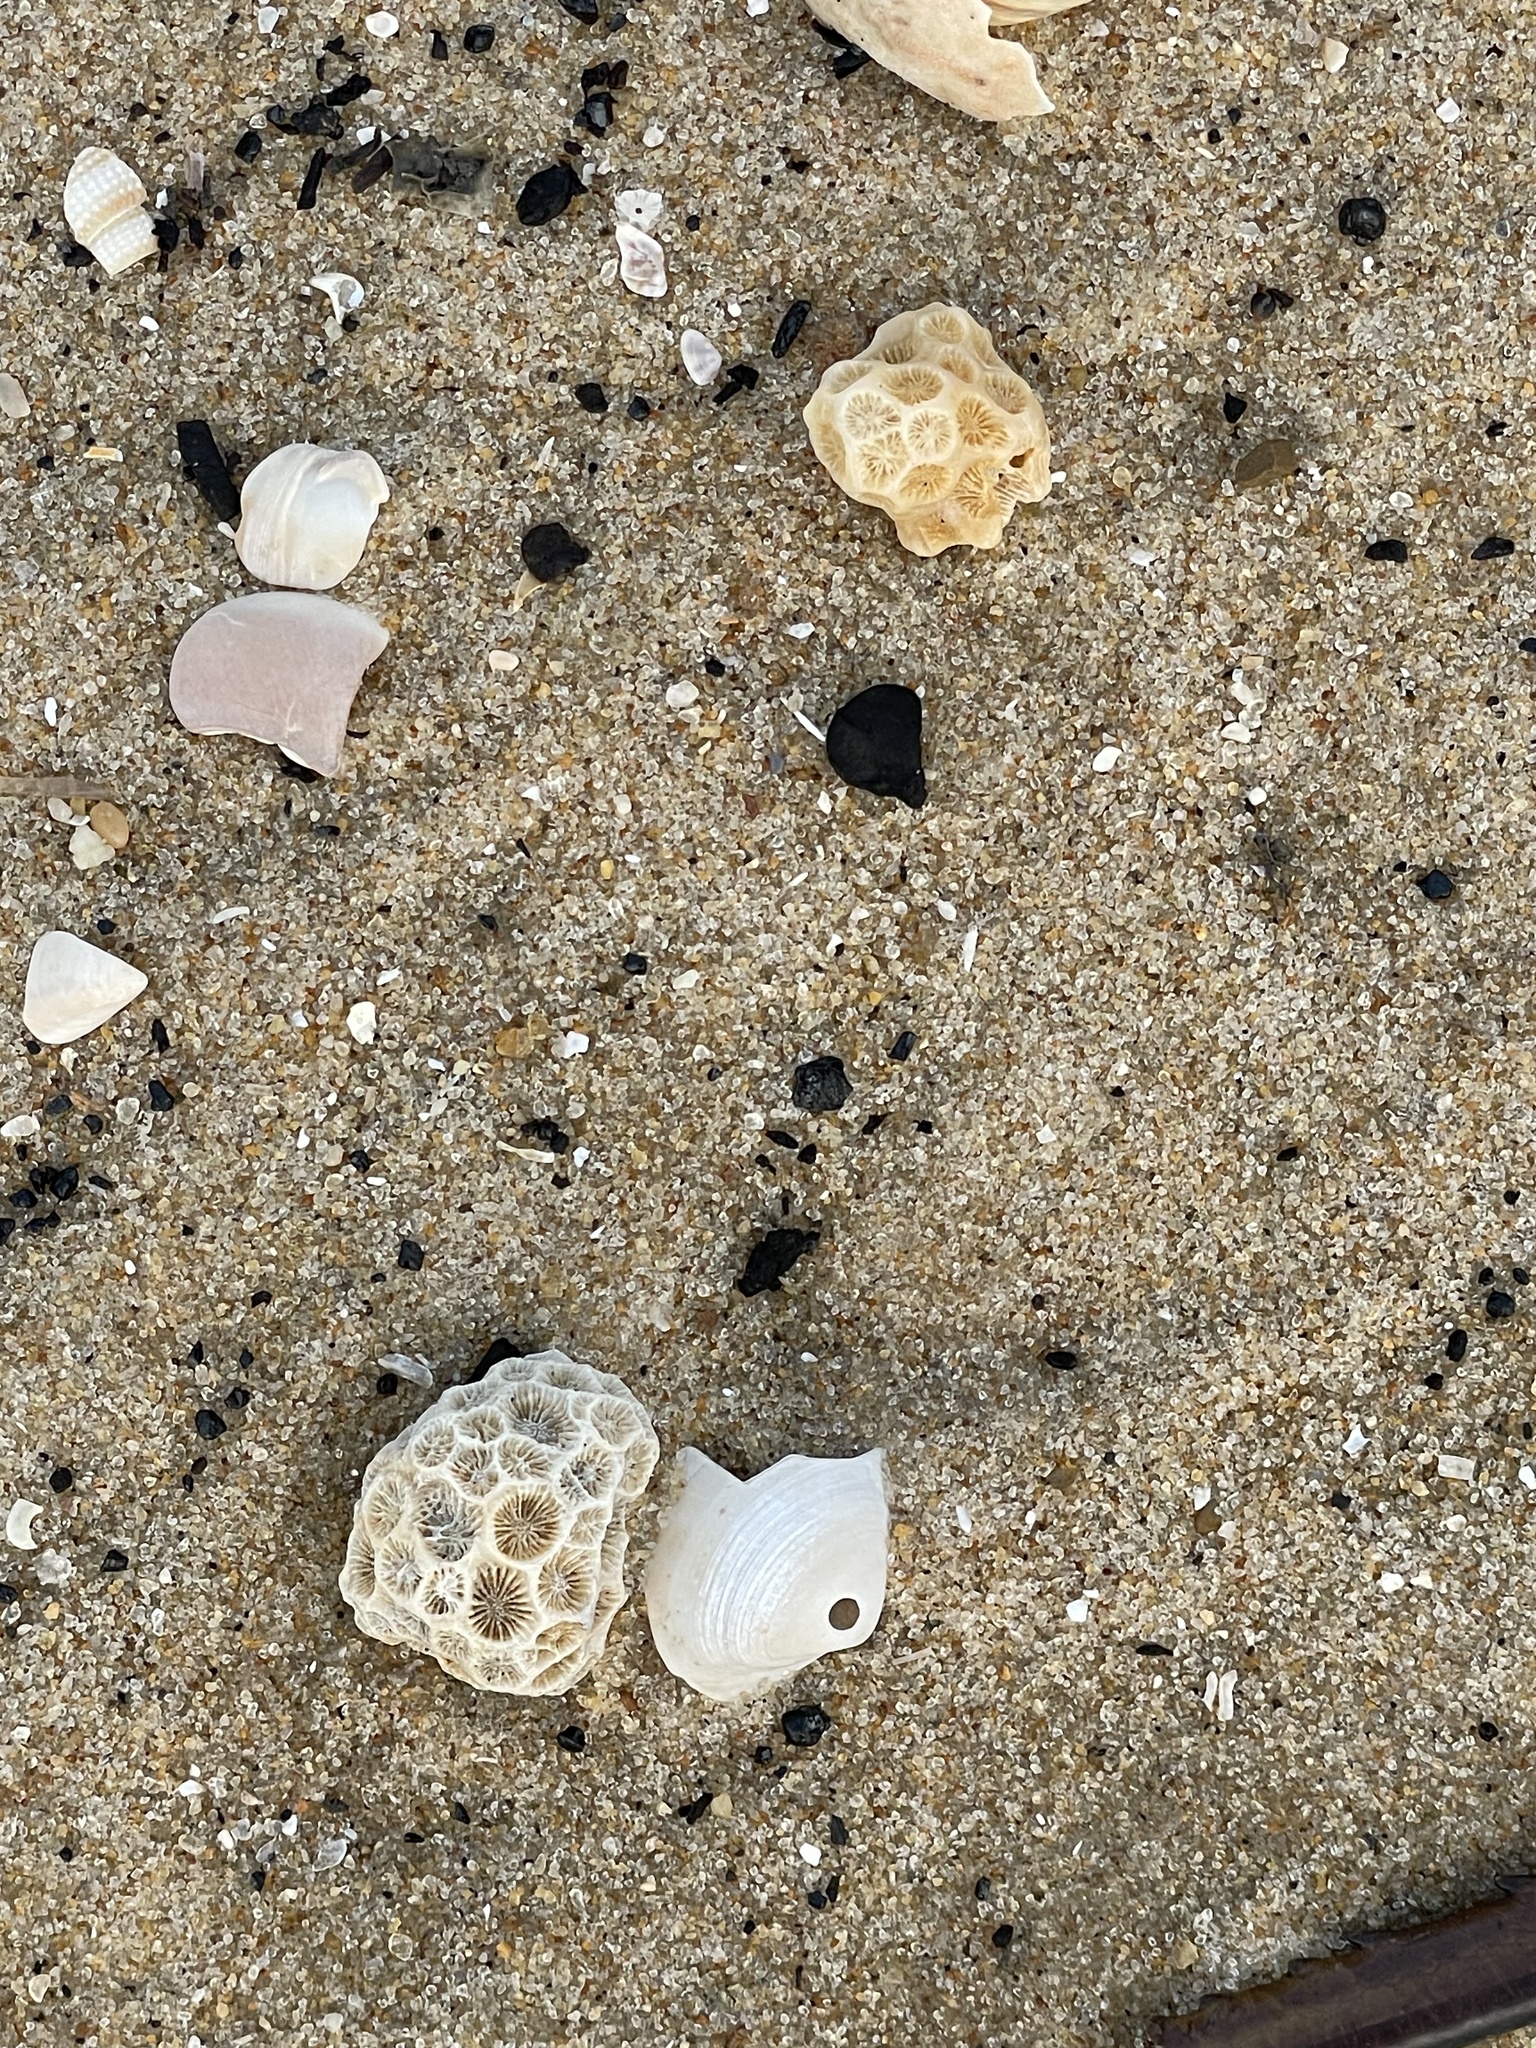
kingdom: Animalia
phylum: Cnidaria
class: Anthozoa
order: Scleractinia
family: Astrangiidae
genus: Astrangia
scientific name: Astrangia poculata
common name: Northern star coral
